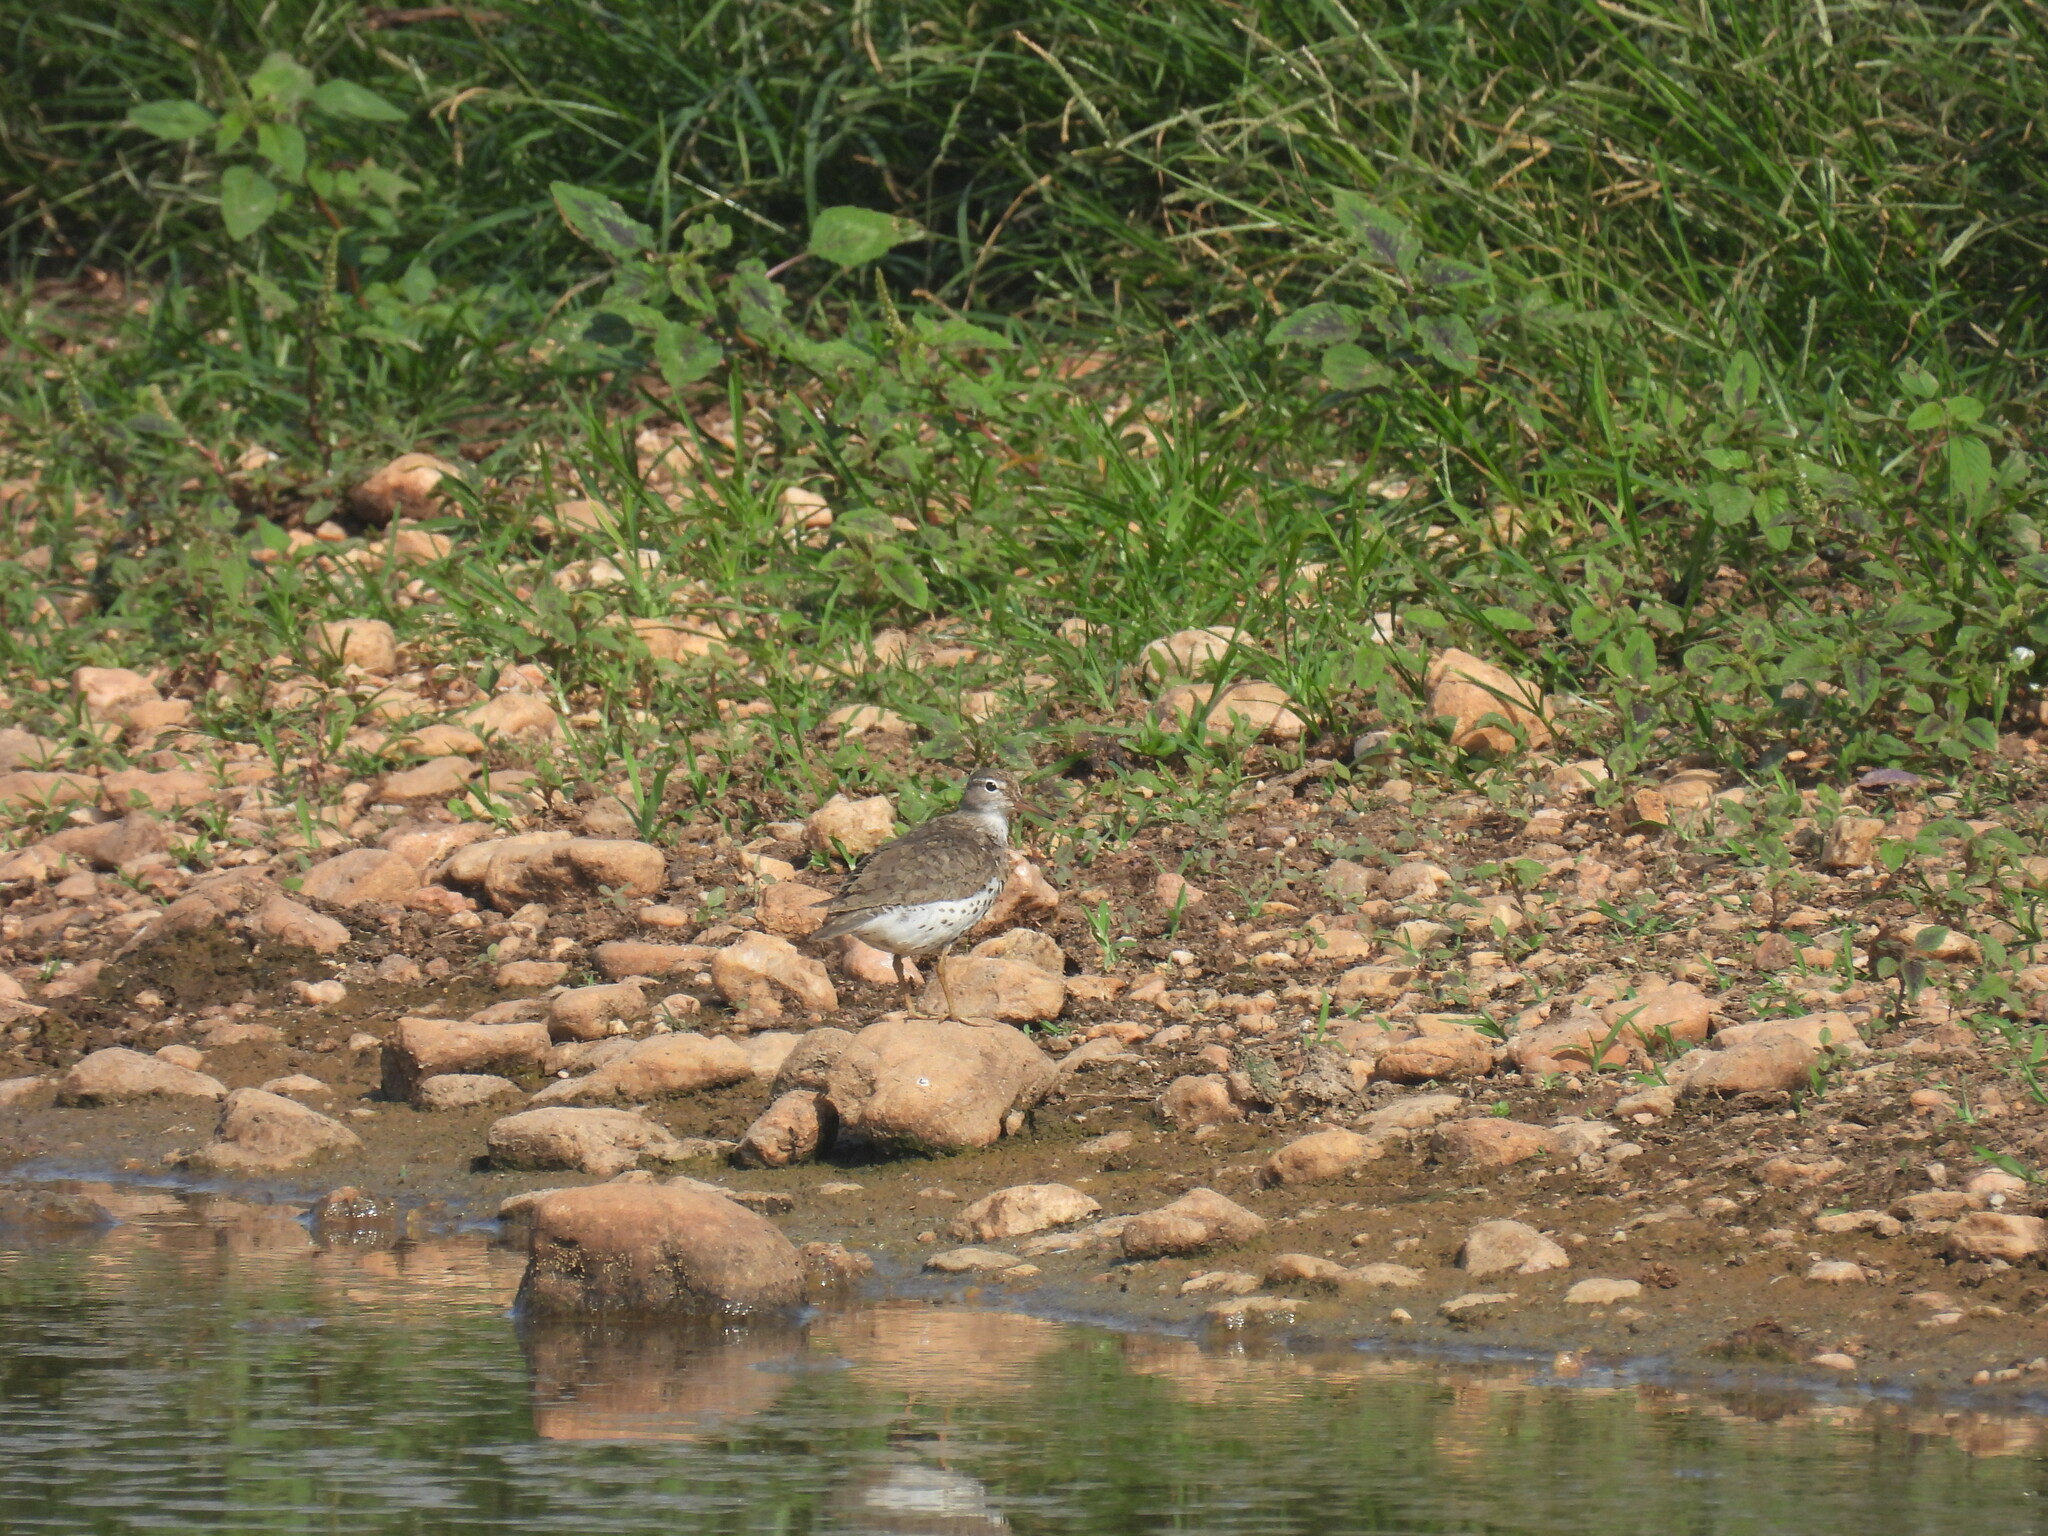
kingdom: Animalia
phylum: Chordata
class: Aves
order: Charadriiformes
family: Scolopacidae
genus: Actitis
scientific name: Actitis macularius
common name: Spotted sandpiper
